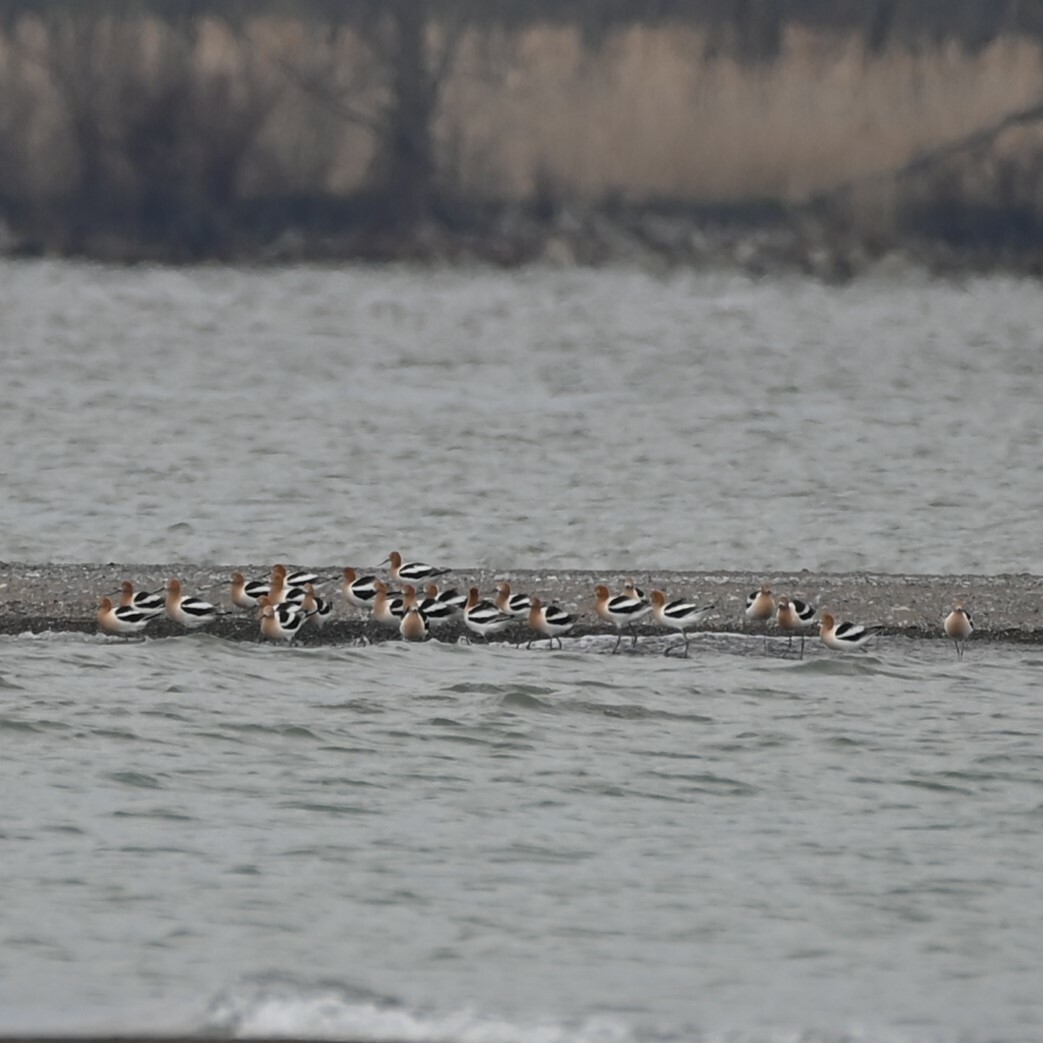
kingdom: Animalia
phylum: Chordata
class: Aves
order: Charadriiformes
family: Recurvirostridae
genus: Recurvirostra
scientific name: Recurvirostra americana
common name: American avocet
